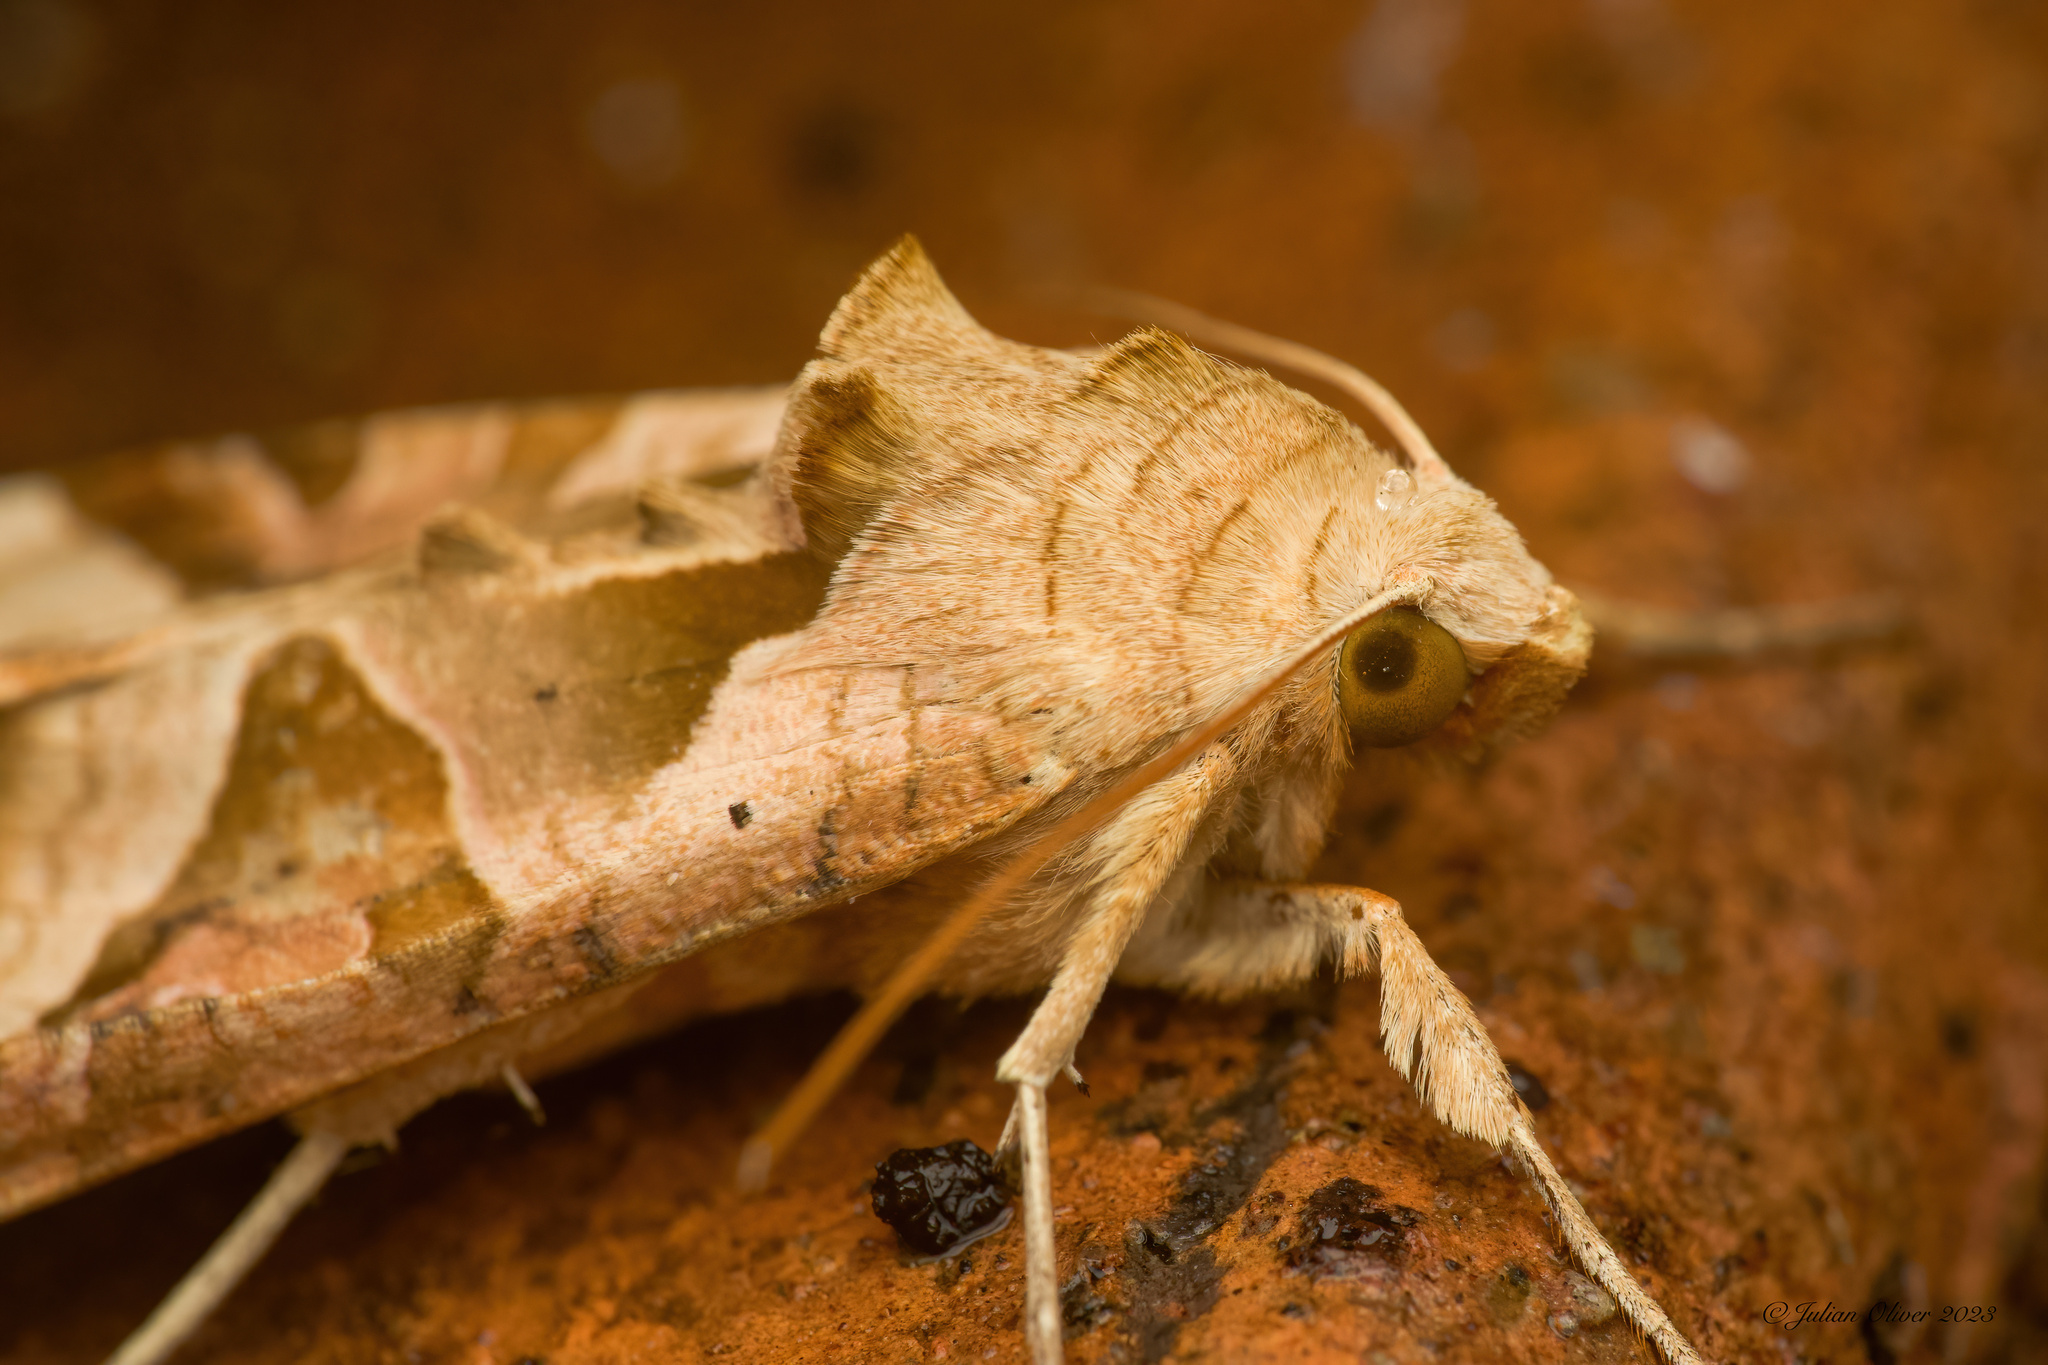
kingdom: Animalia
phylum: Arthropoda
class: Insecta
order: Lepidoptera
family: Noctuidae
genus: Phlogophora
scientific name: Phlogophora meticulosa
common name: Angle shades
